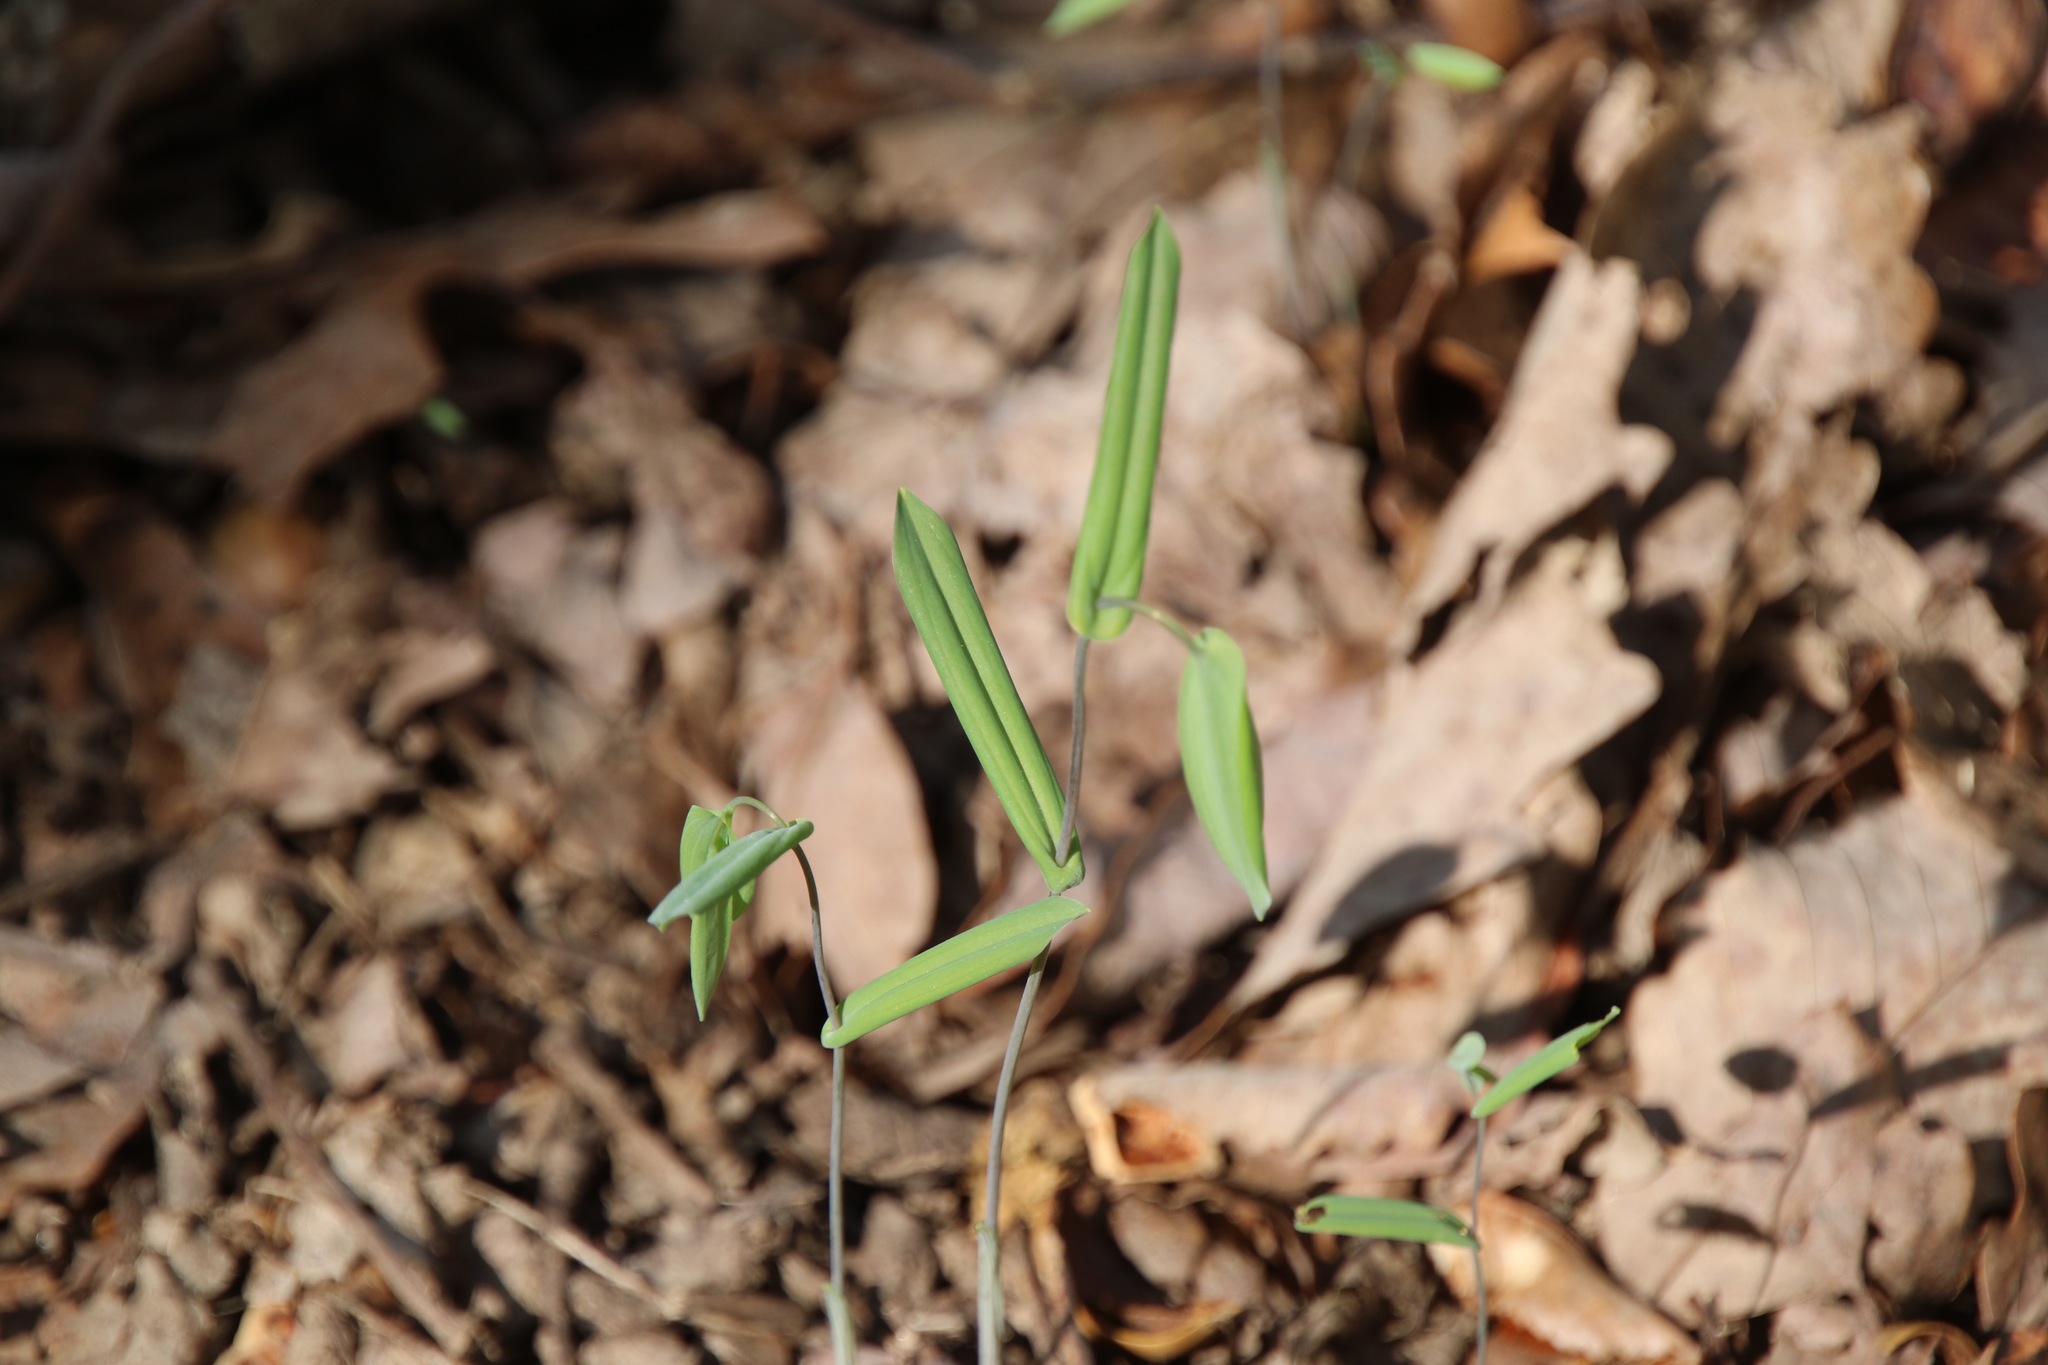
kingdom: Plantae
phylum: Tracheophyta
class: Liliopsida
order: Liliales
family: Colchicaceae
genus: Uvularia
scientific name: Uvularia perfoliata
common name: Perfoliate bellwort
